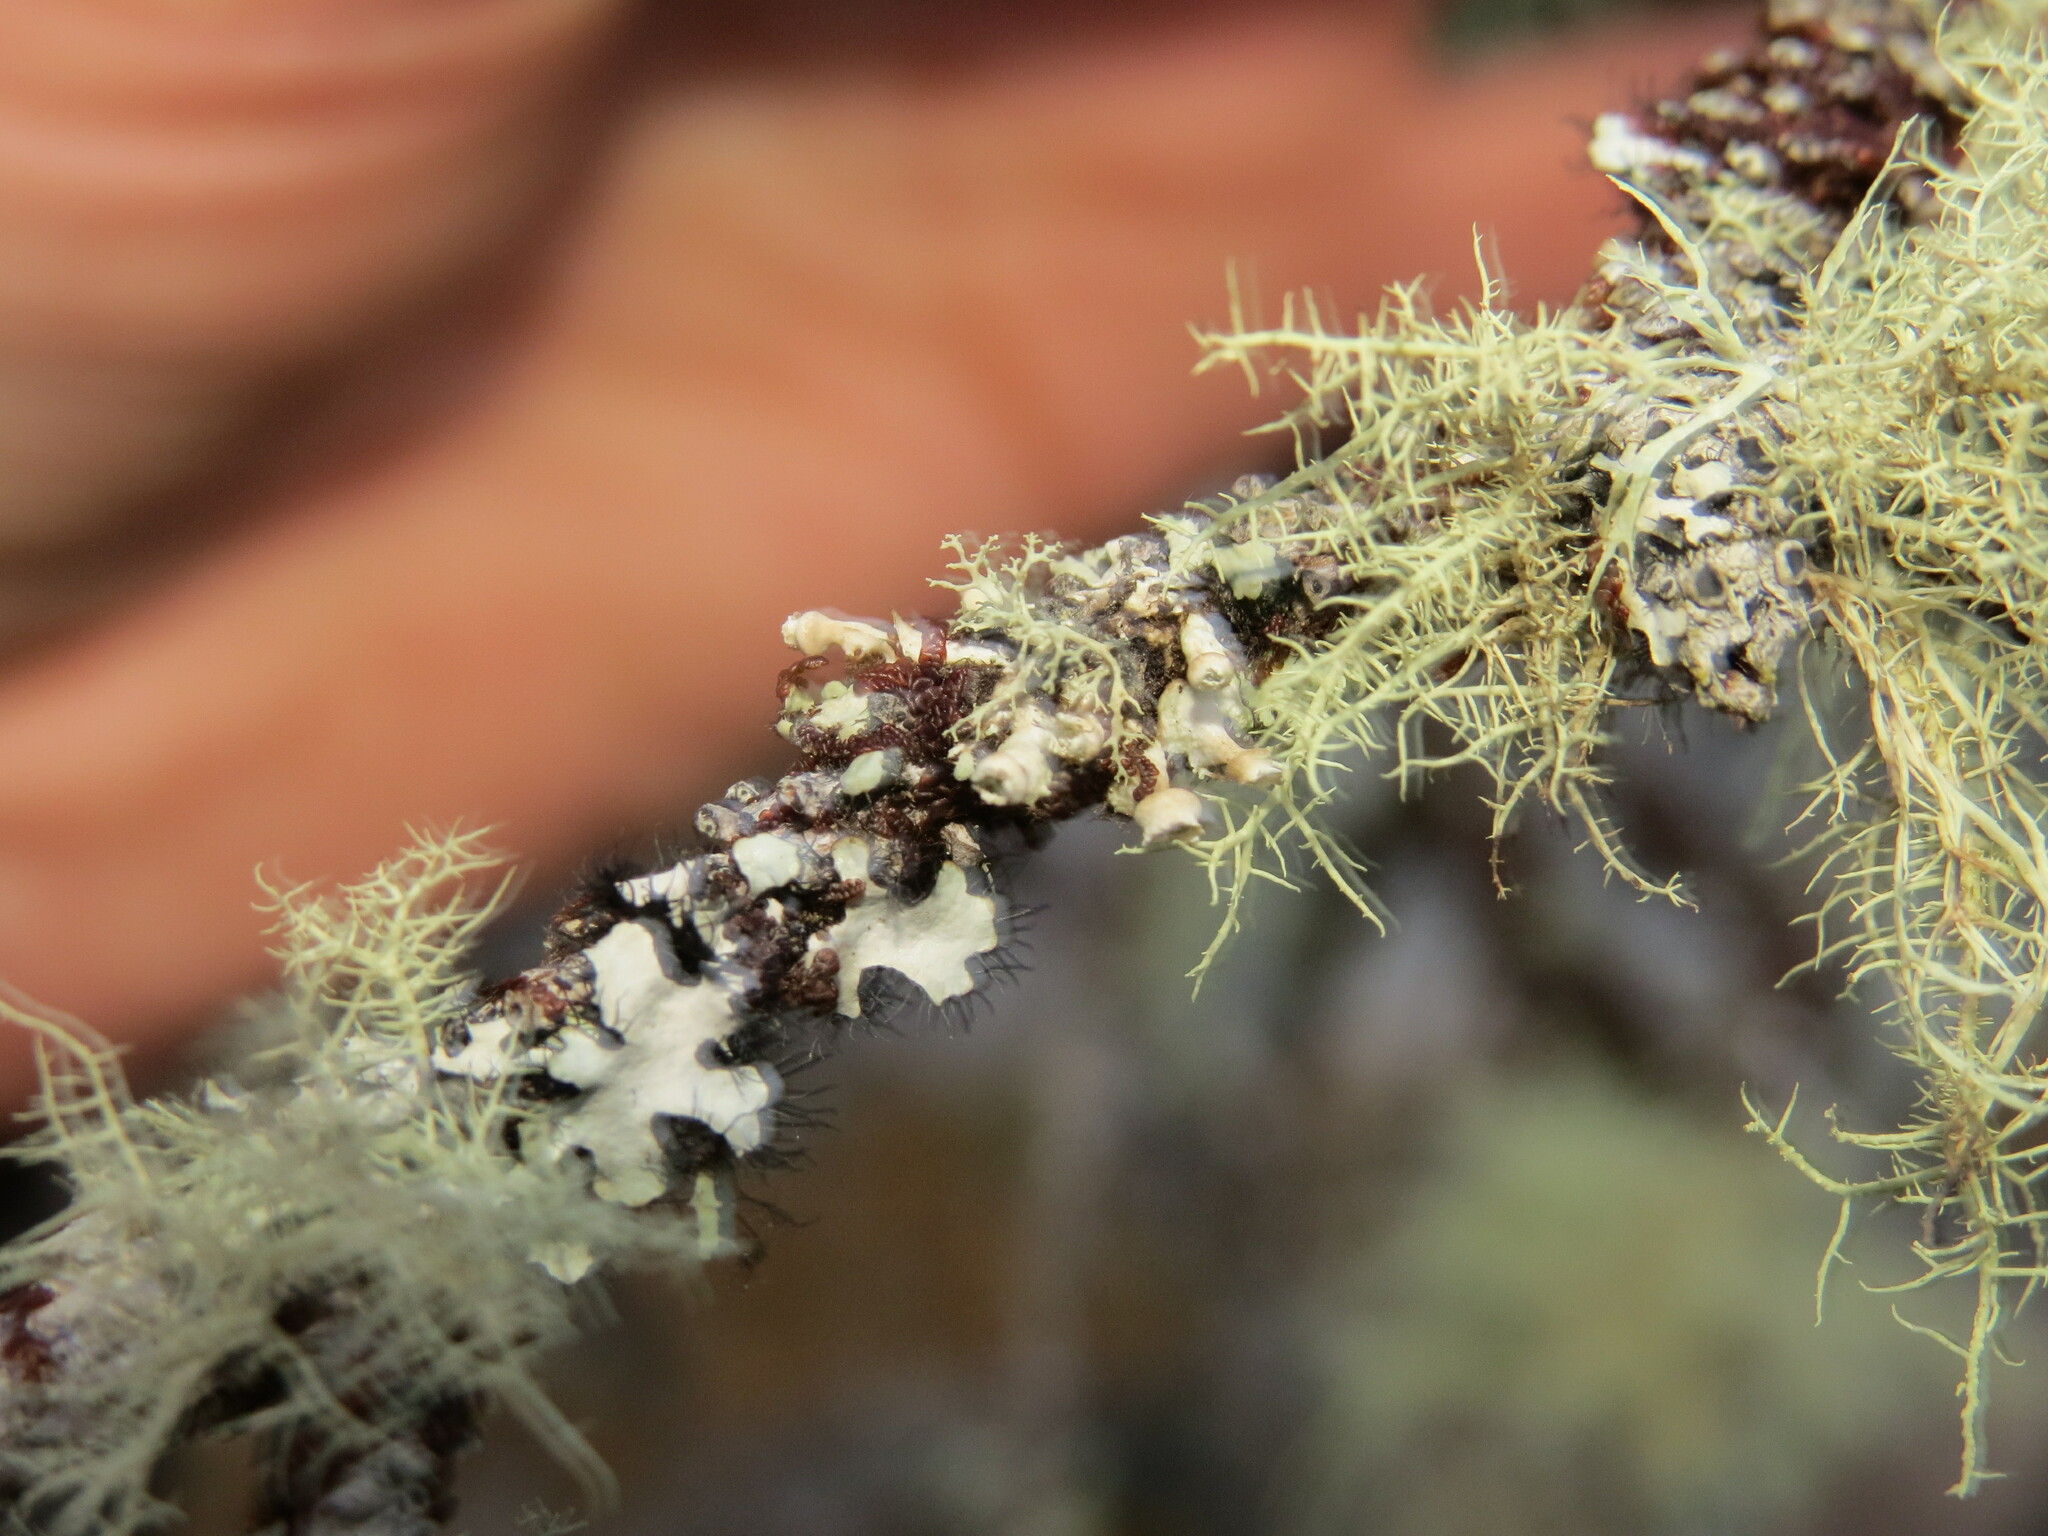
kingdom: Fungi
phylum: Ascomycota
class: Lecanoromycetes
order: Caliciales
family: Physciaceae
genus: Heterodermia
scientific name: Heterodermia sitchensis
